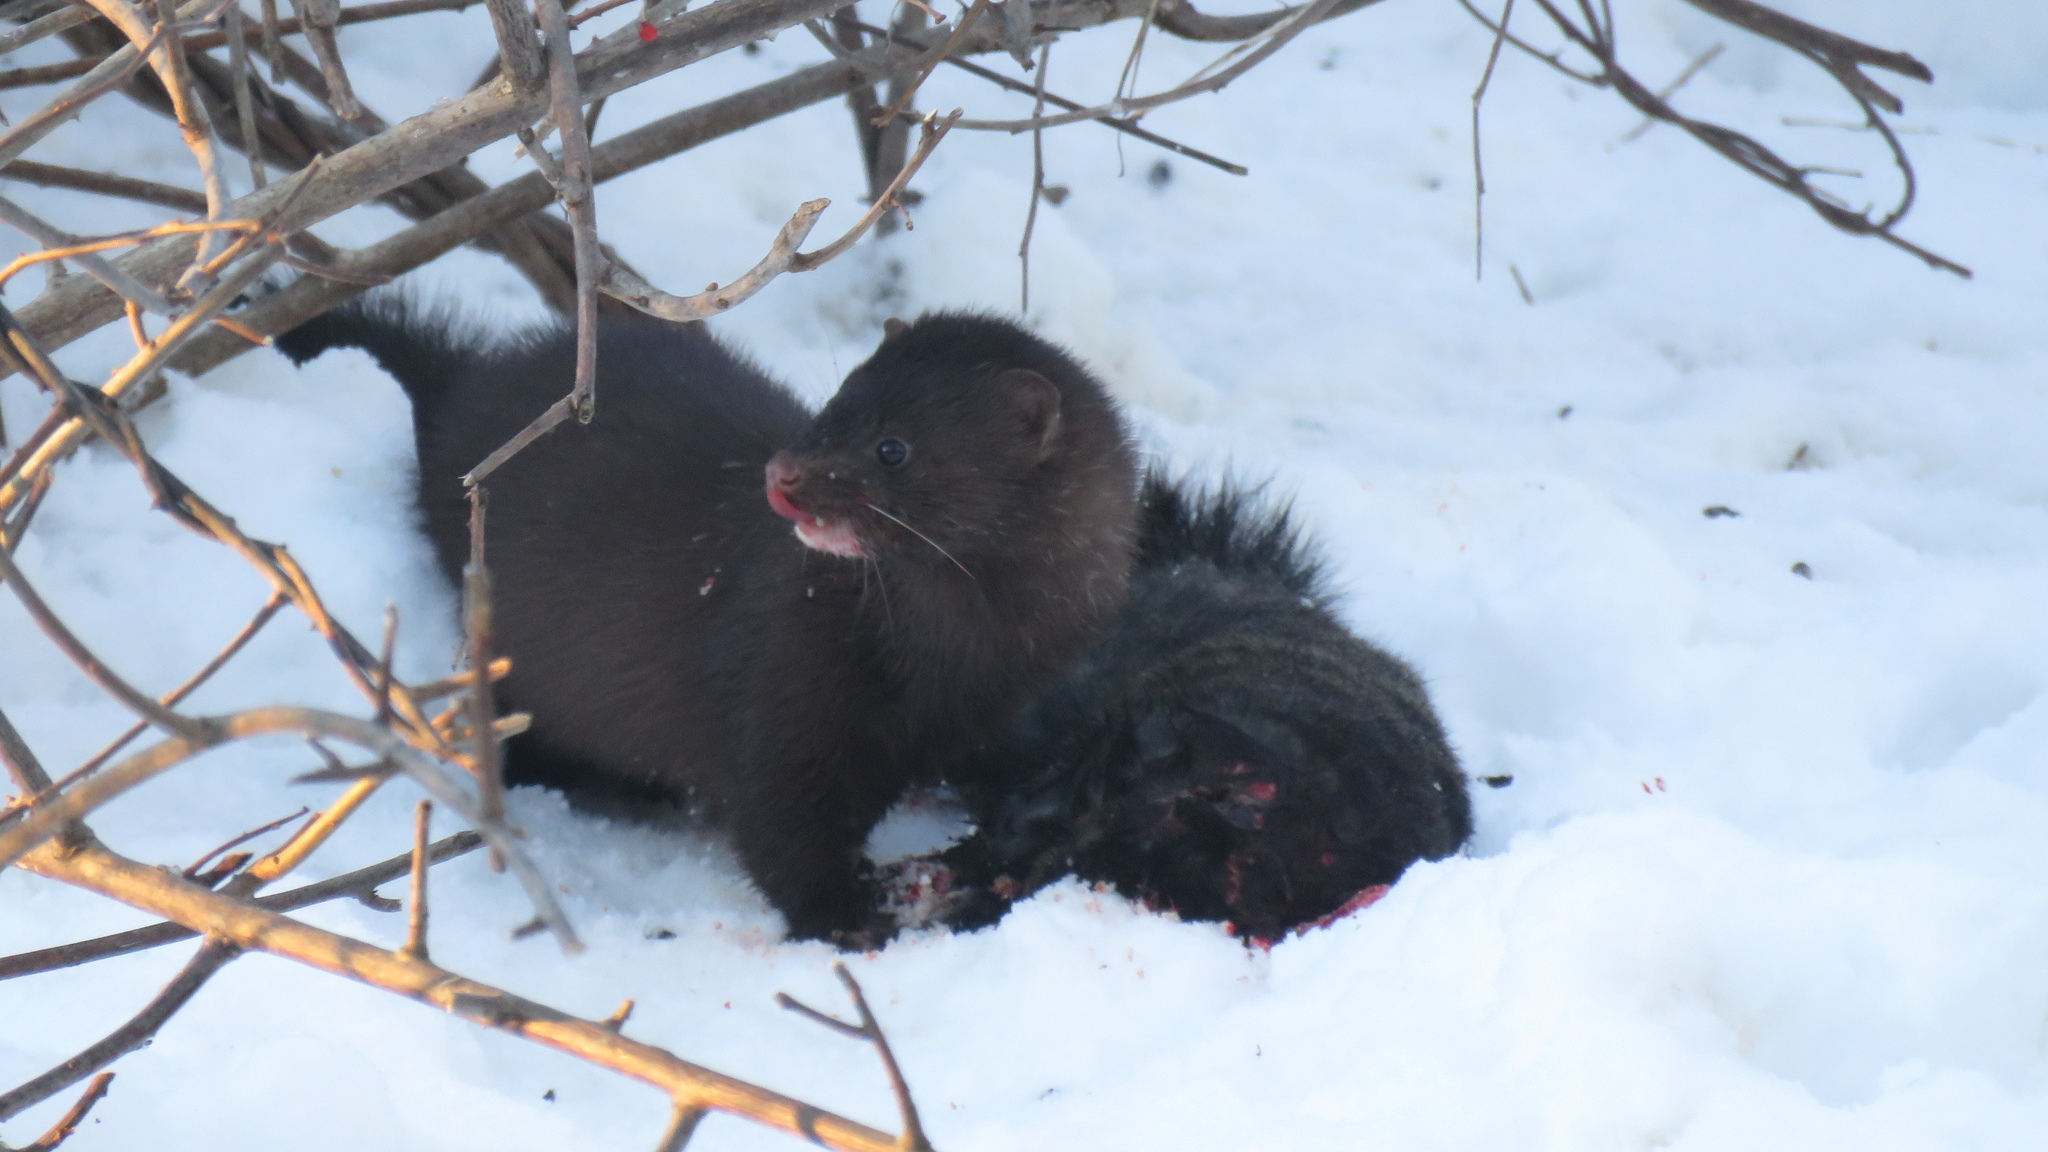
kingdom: Animalia
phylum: Chordata
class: Mammalia
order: Carnivora
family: Mustelidae
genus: Mustela
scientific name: Mustela
